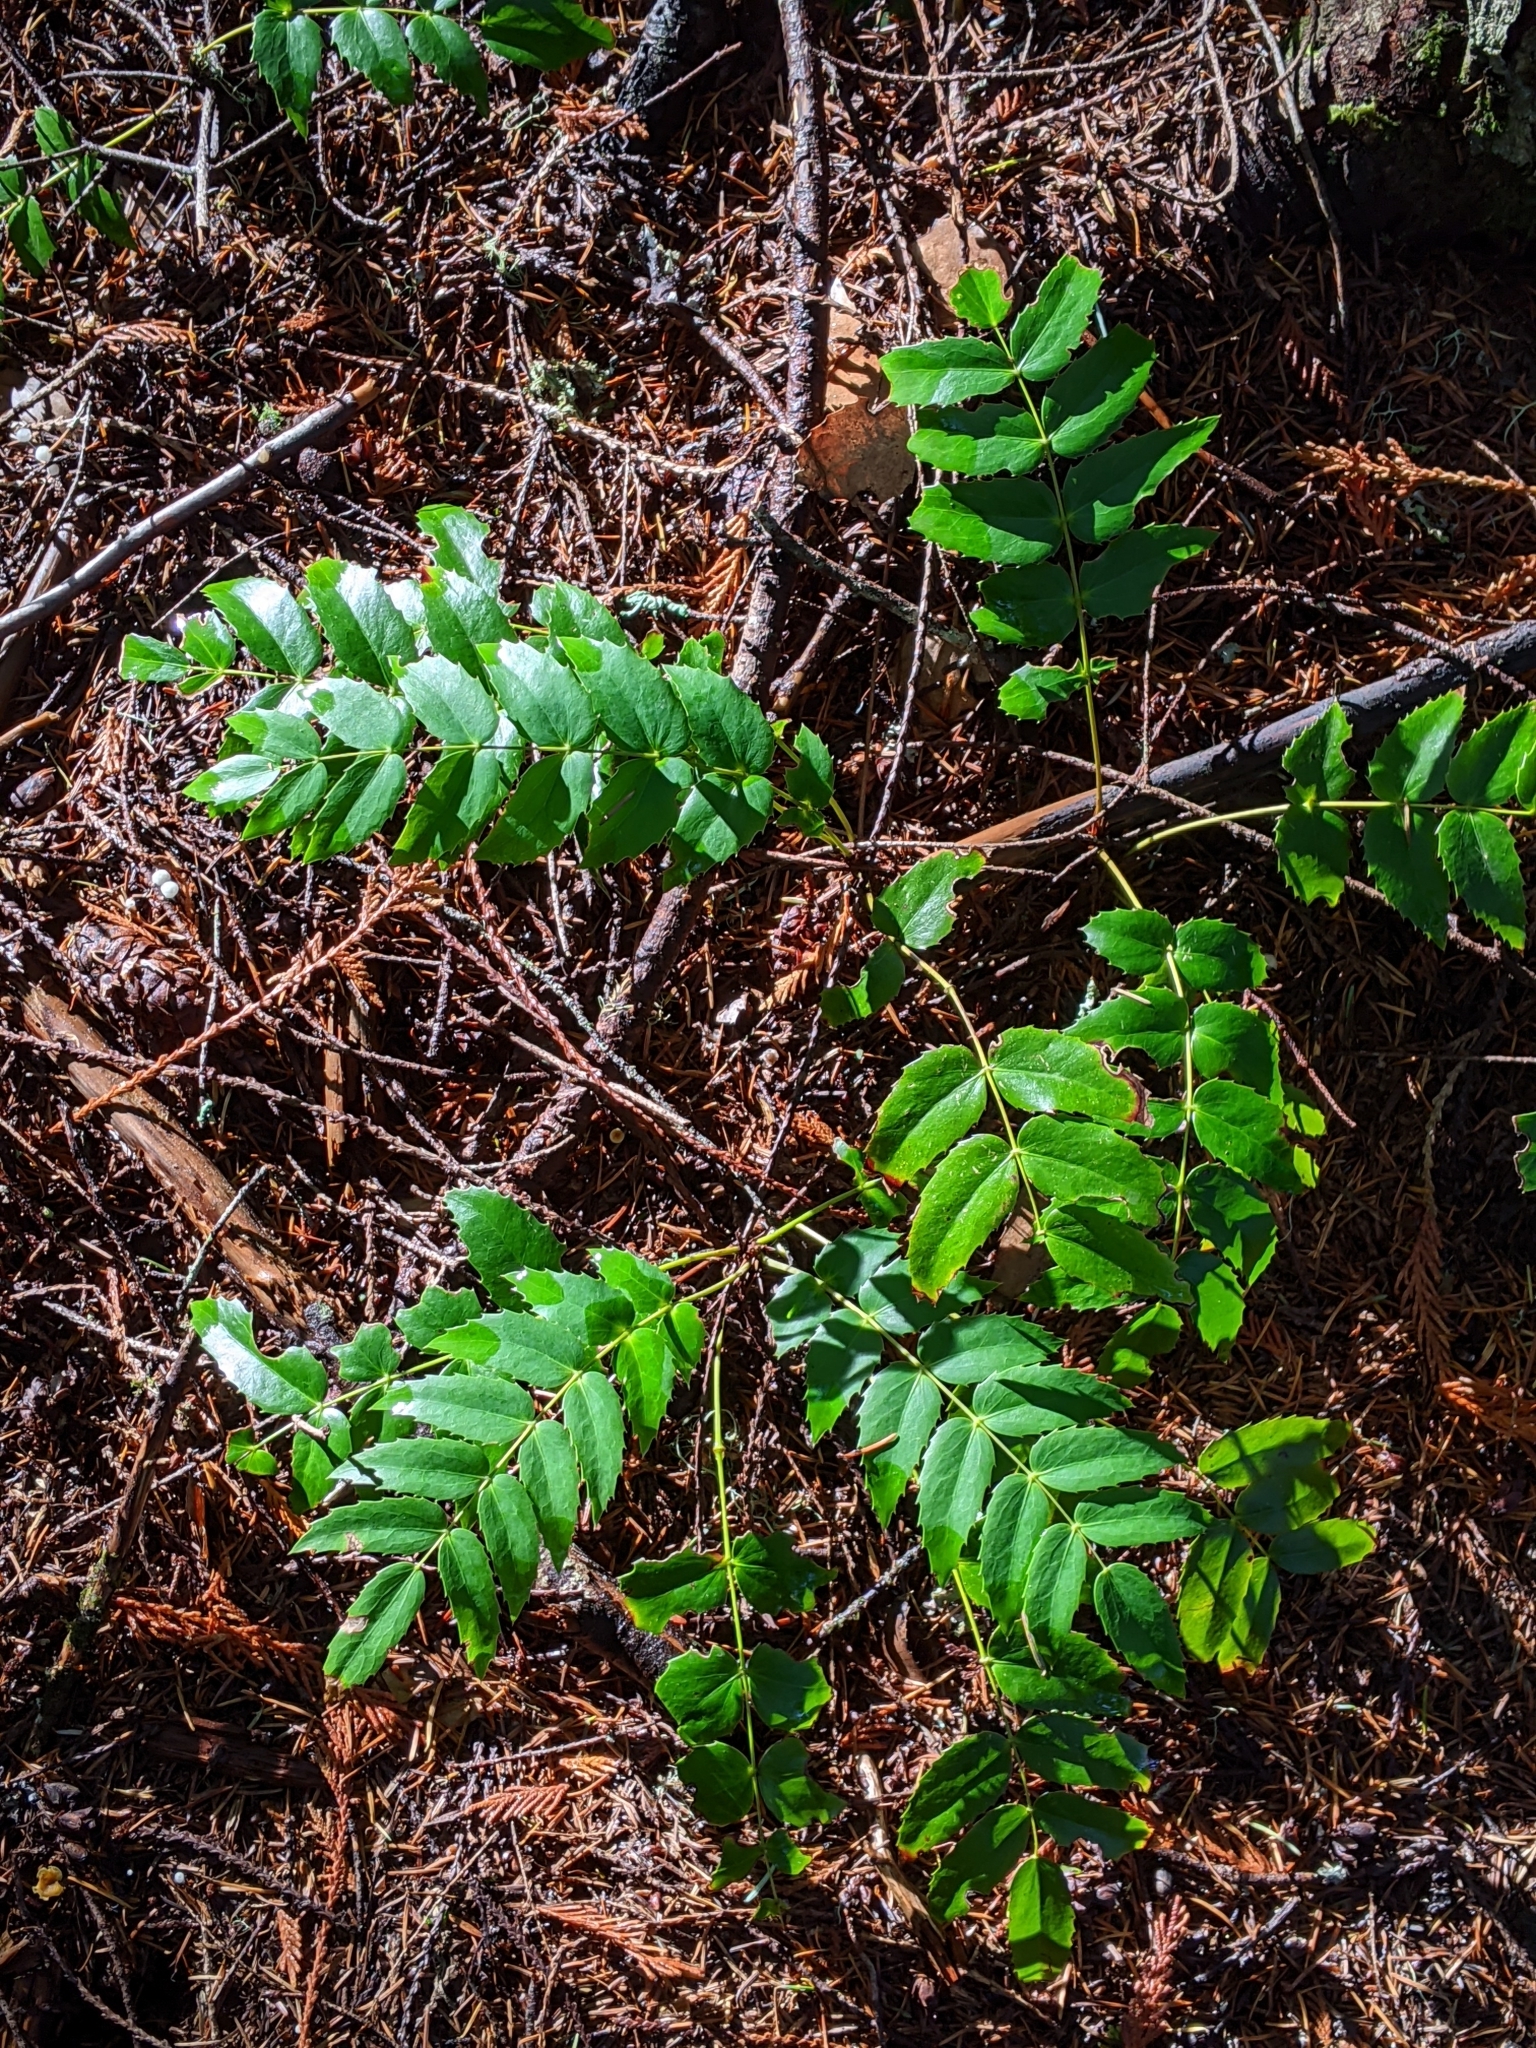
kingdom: Plantae
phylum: Tracheophyta
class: Magnoliopsida
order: Ranunculales
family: Berberidaceae
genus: Mahonia
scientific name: Mahonia nervosa
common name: Cascade oregon-grape
